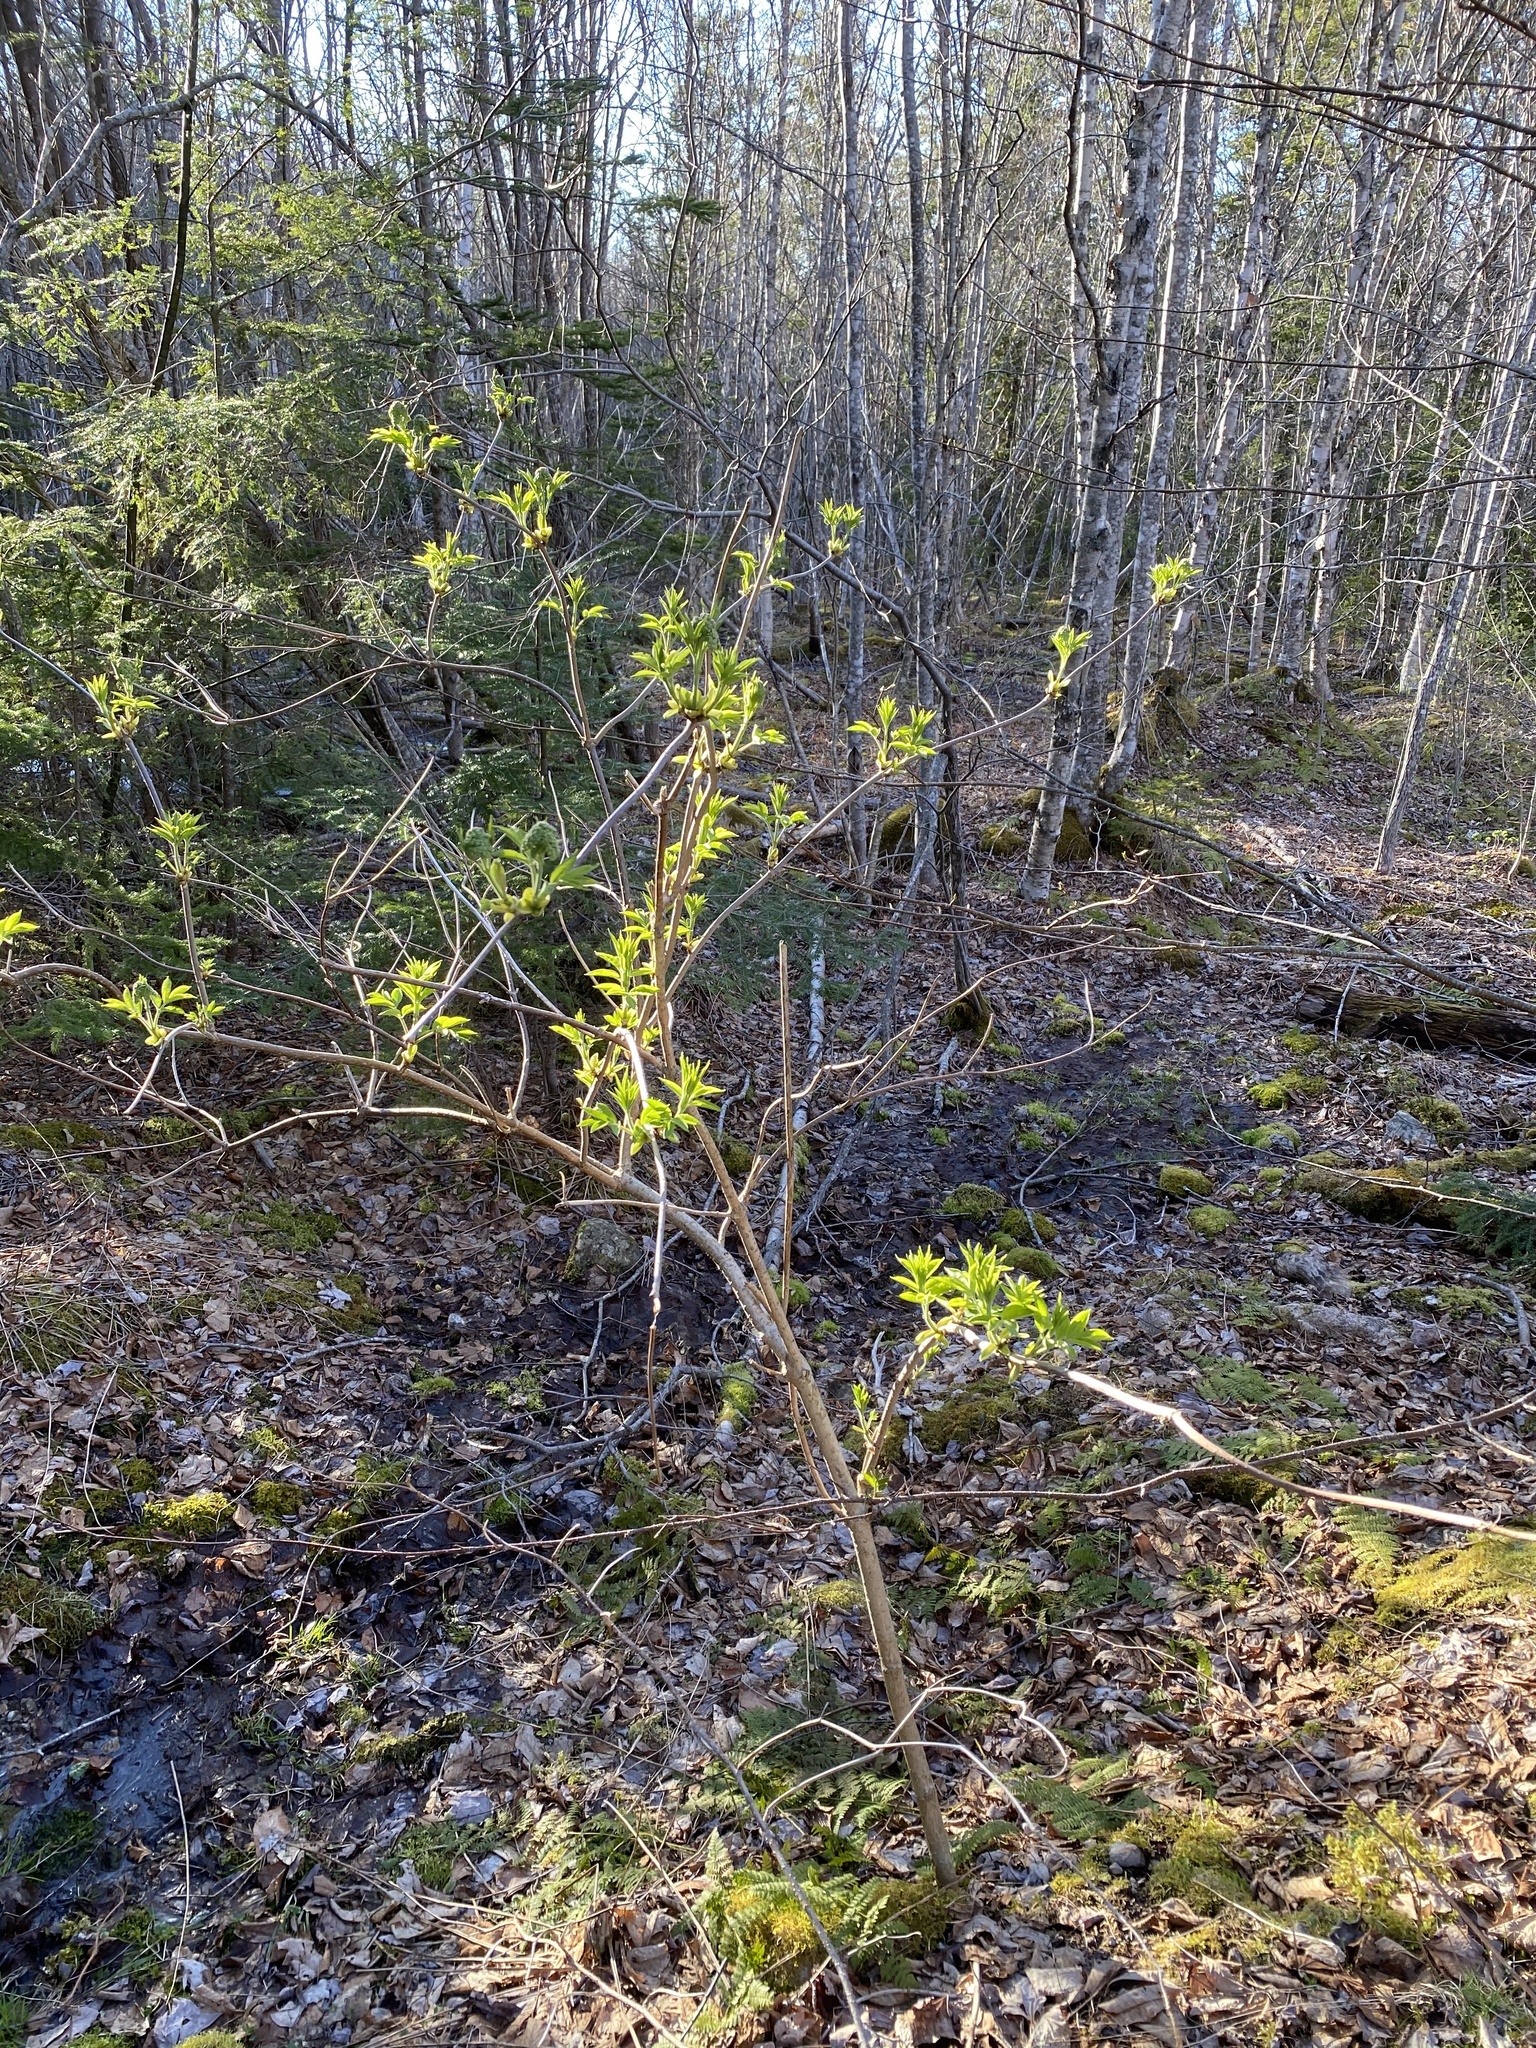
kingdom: Plantae
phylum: Tracheophyta
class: Magnoliopsida
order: Dipsacales
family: Viburnaceae
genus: Sambucus
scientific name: Sambucus racemosa
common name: Red-berried elder
